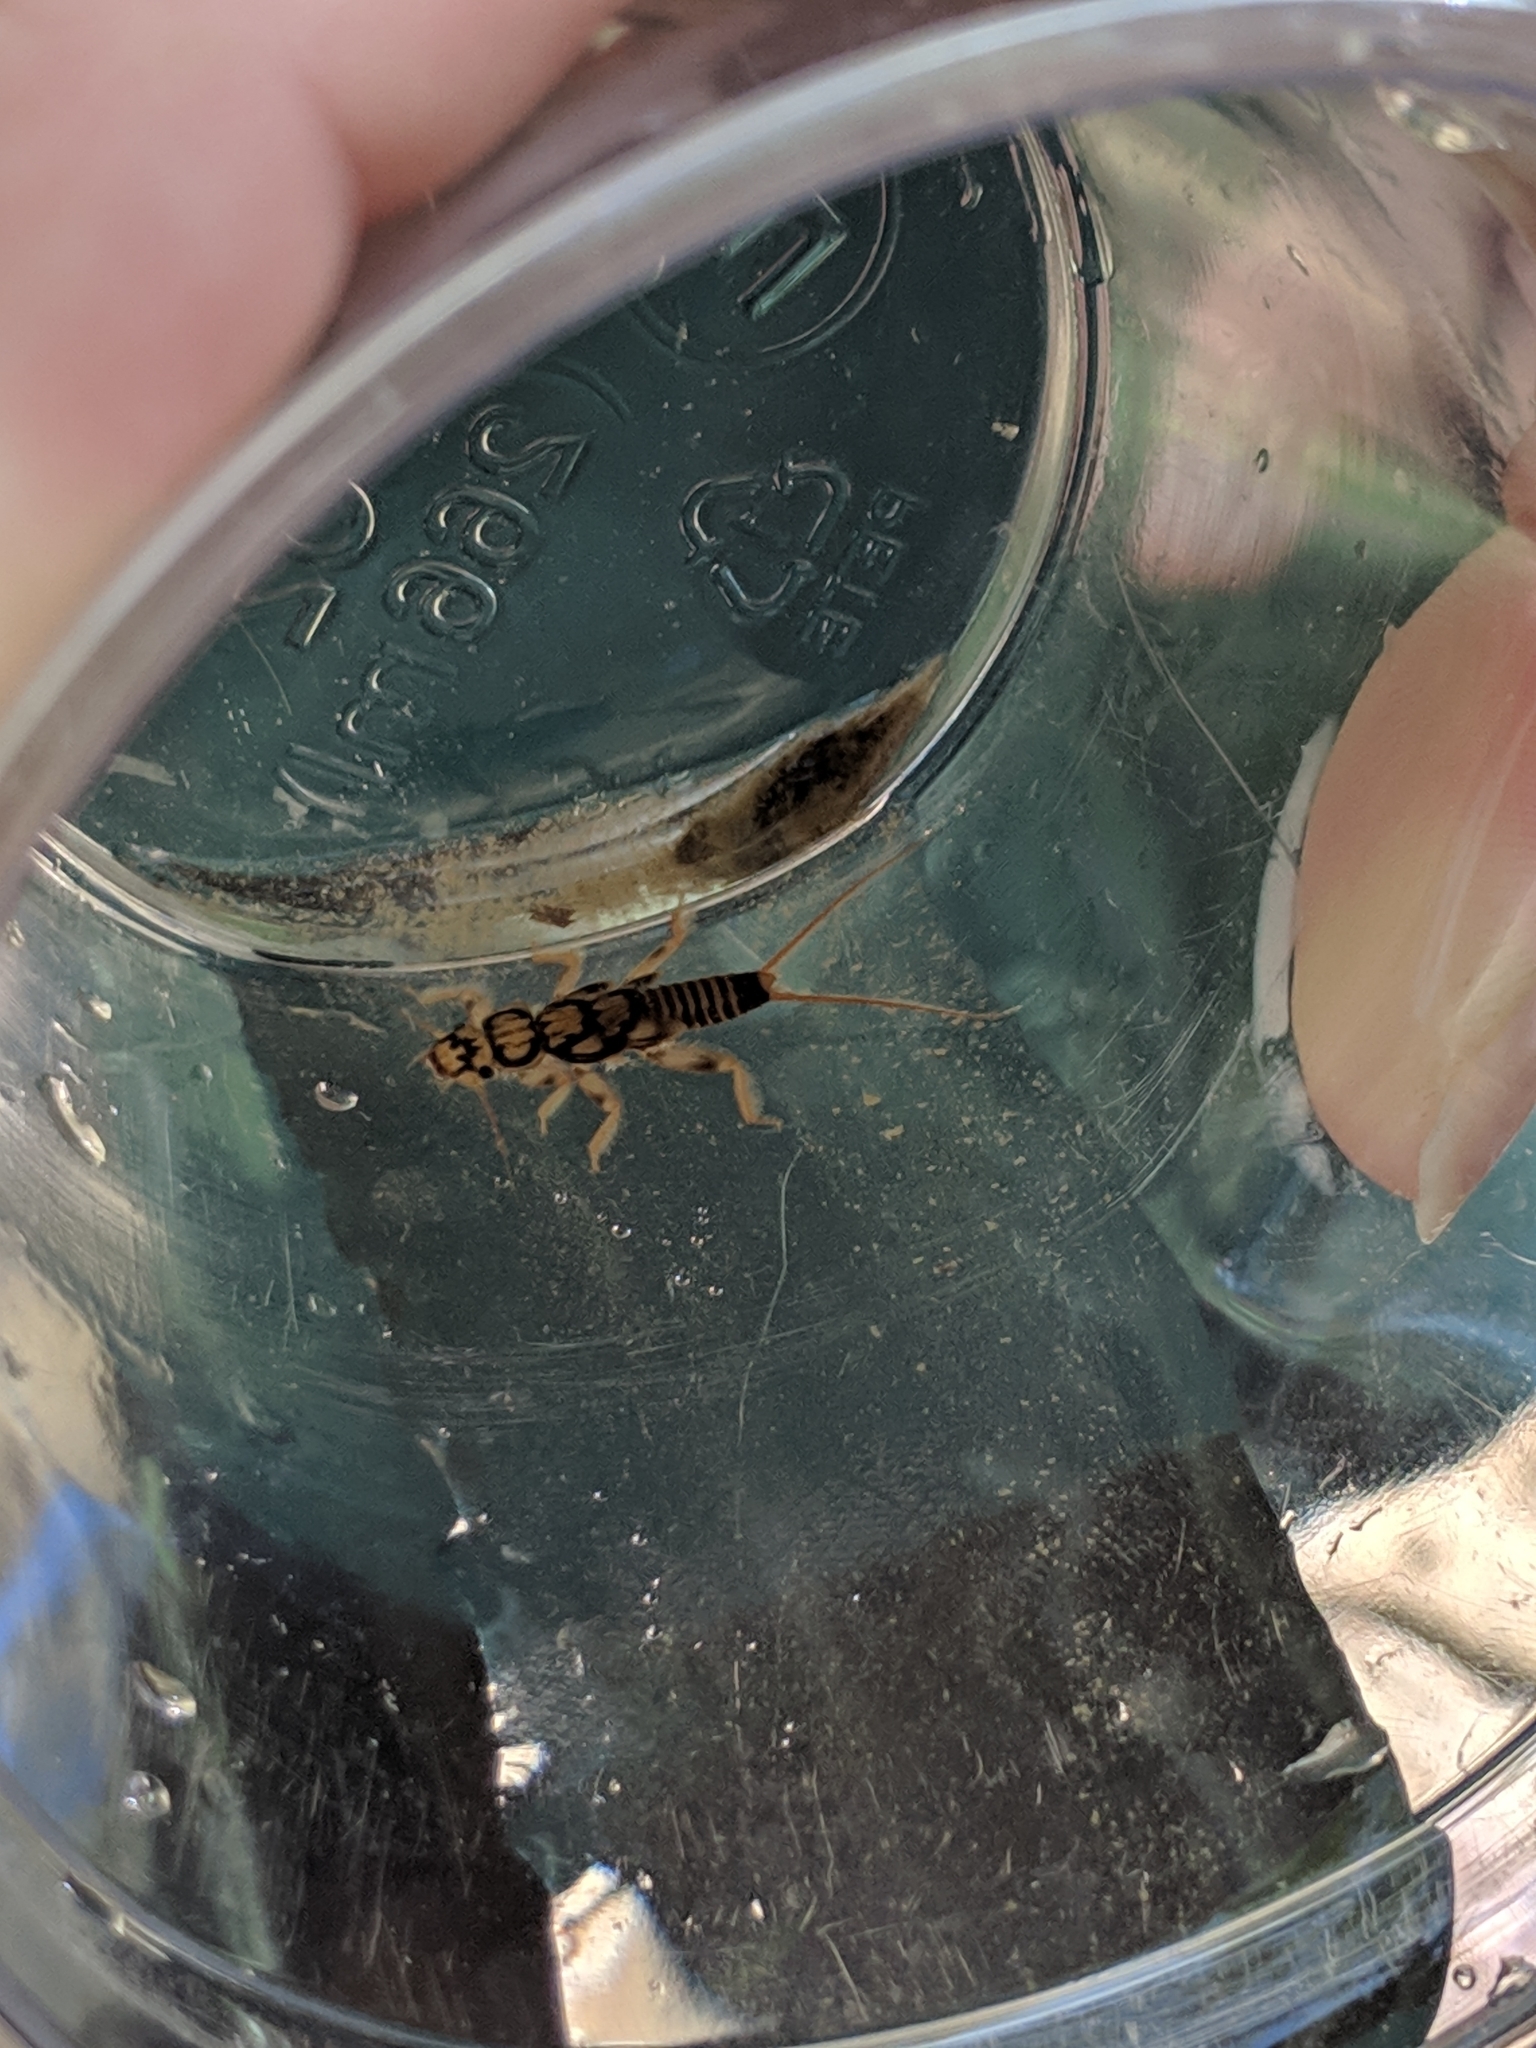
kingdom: Animalia
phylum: Arthropoda
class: Insecta
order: Plecoptera
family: Perlidae
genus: Eccoptura
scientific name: Eccoptura xanthenes
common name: Yellow stone
